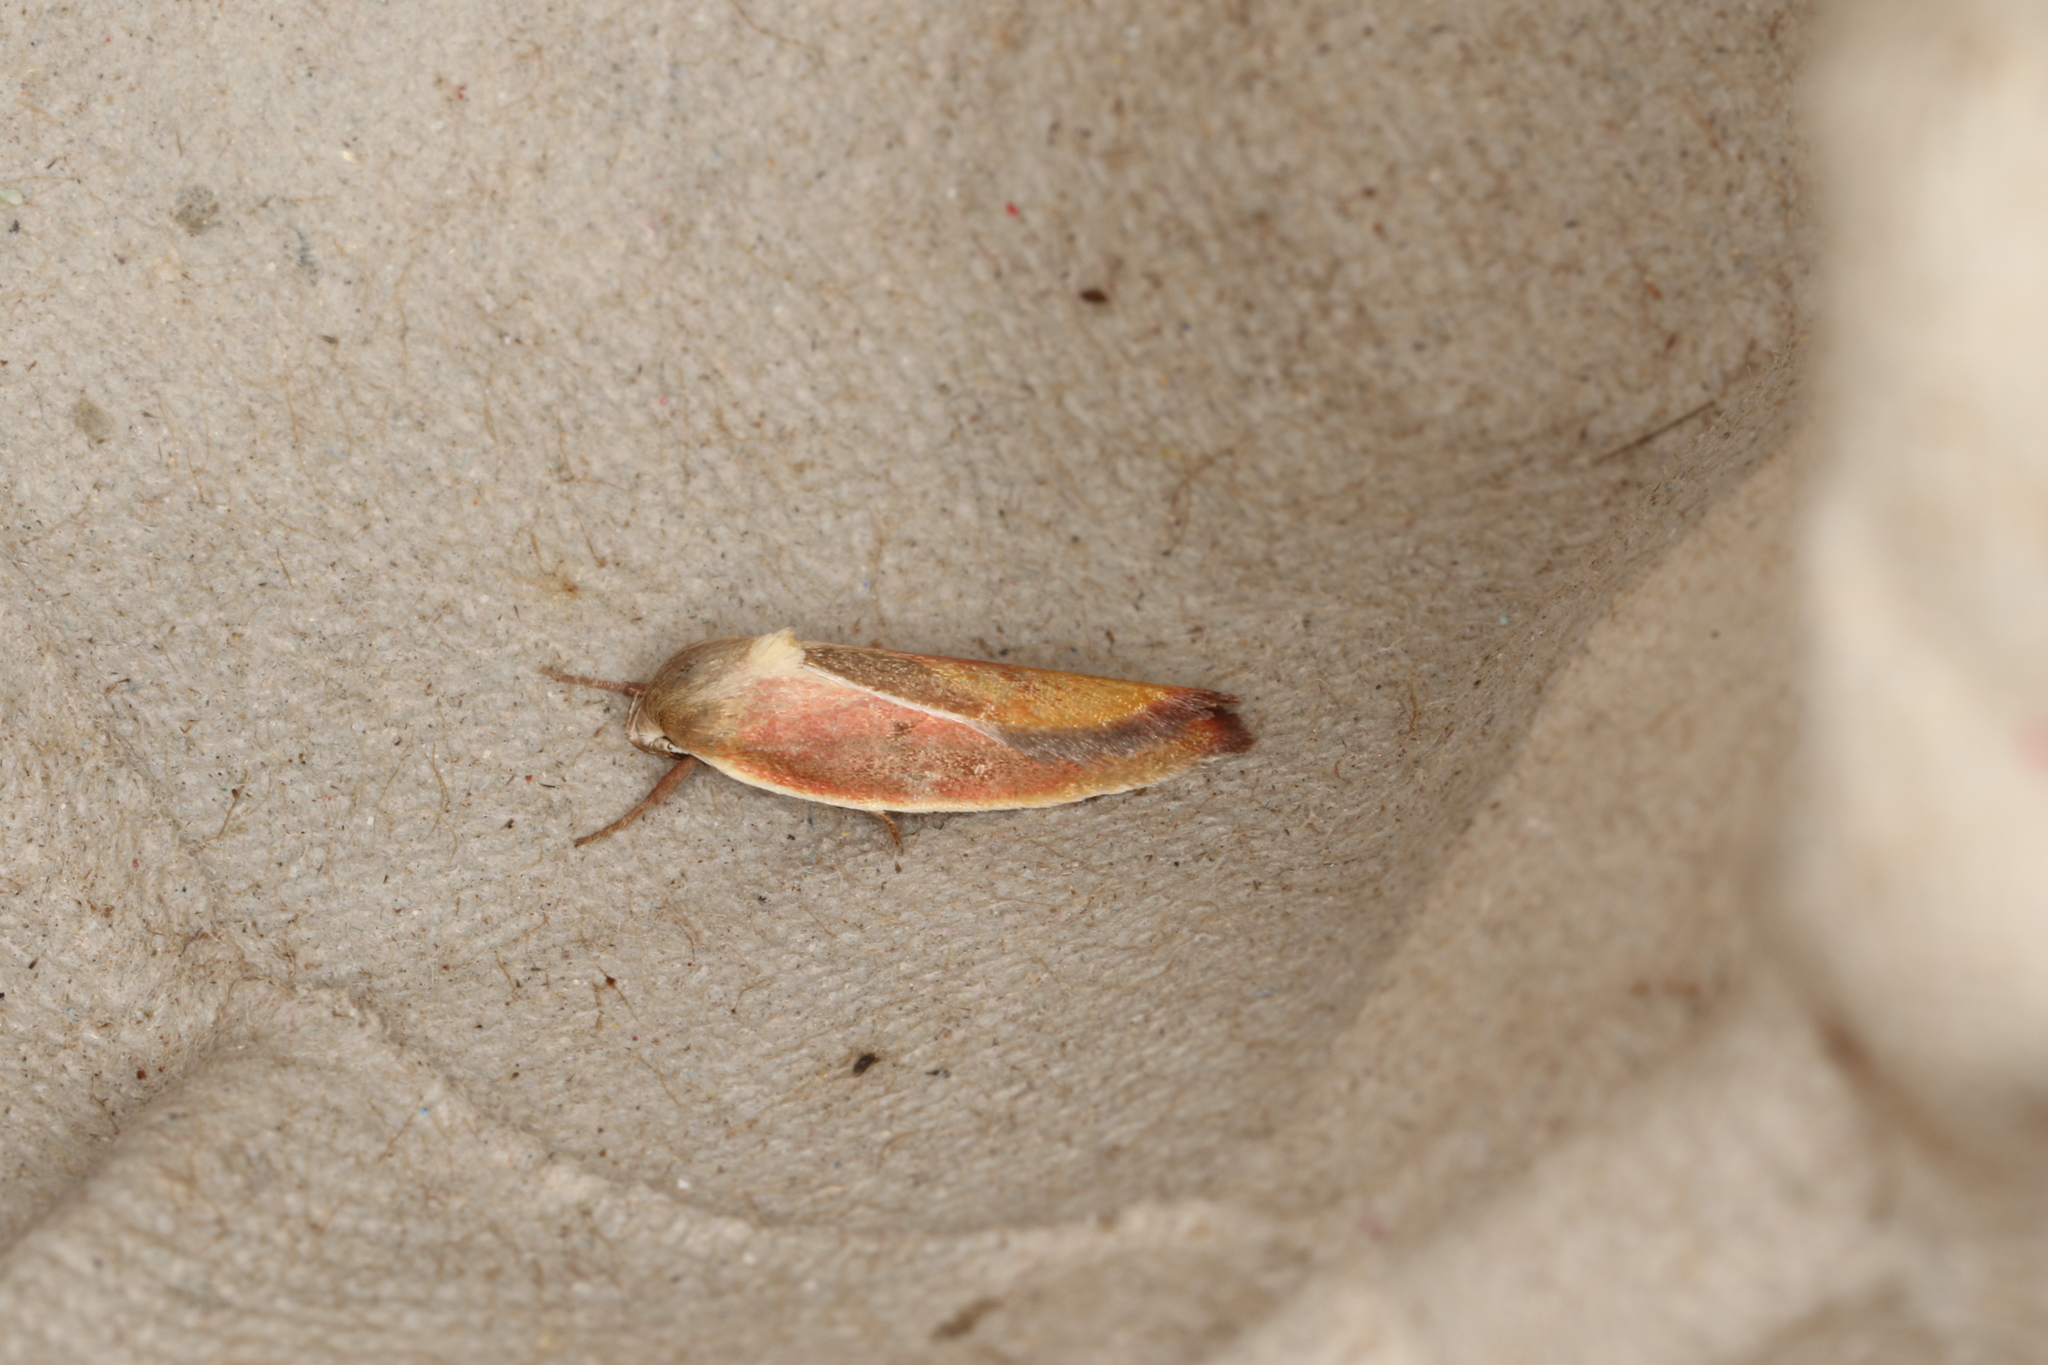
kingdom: Animalia
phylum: Arthropoda
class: Insecta
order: Lepidoptera
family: Oecophoridae
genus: Ptyoptila
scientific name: Ptyoptila matutinella
